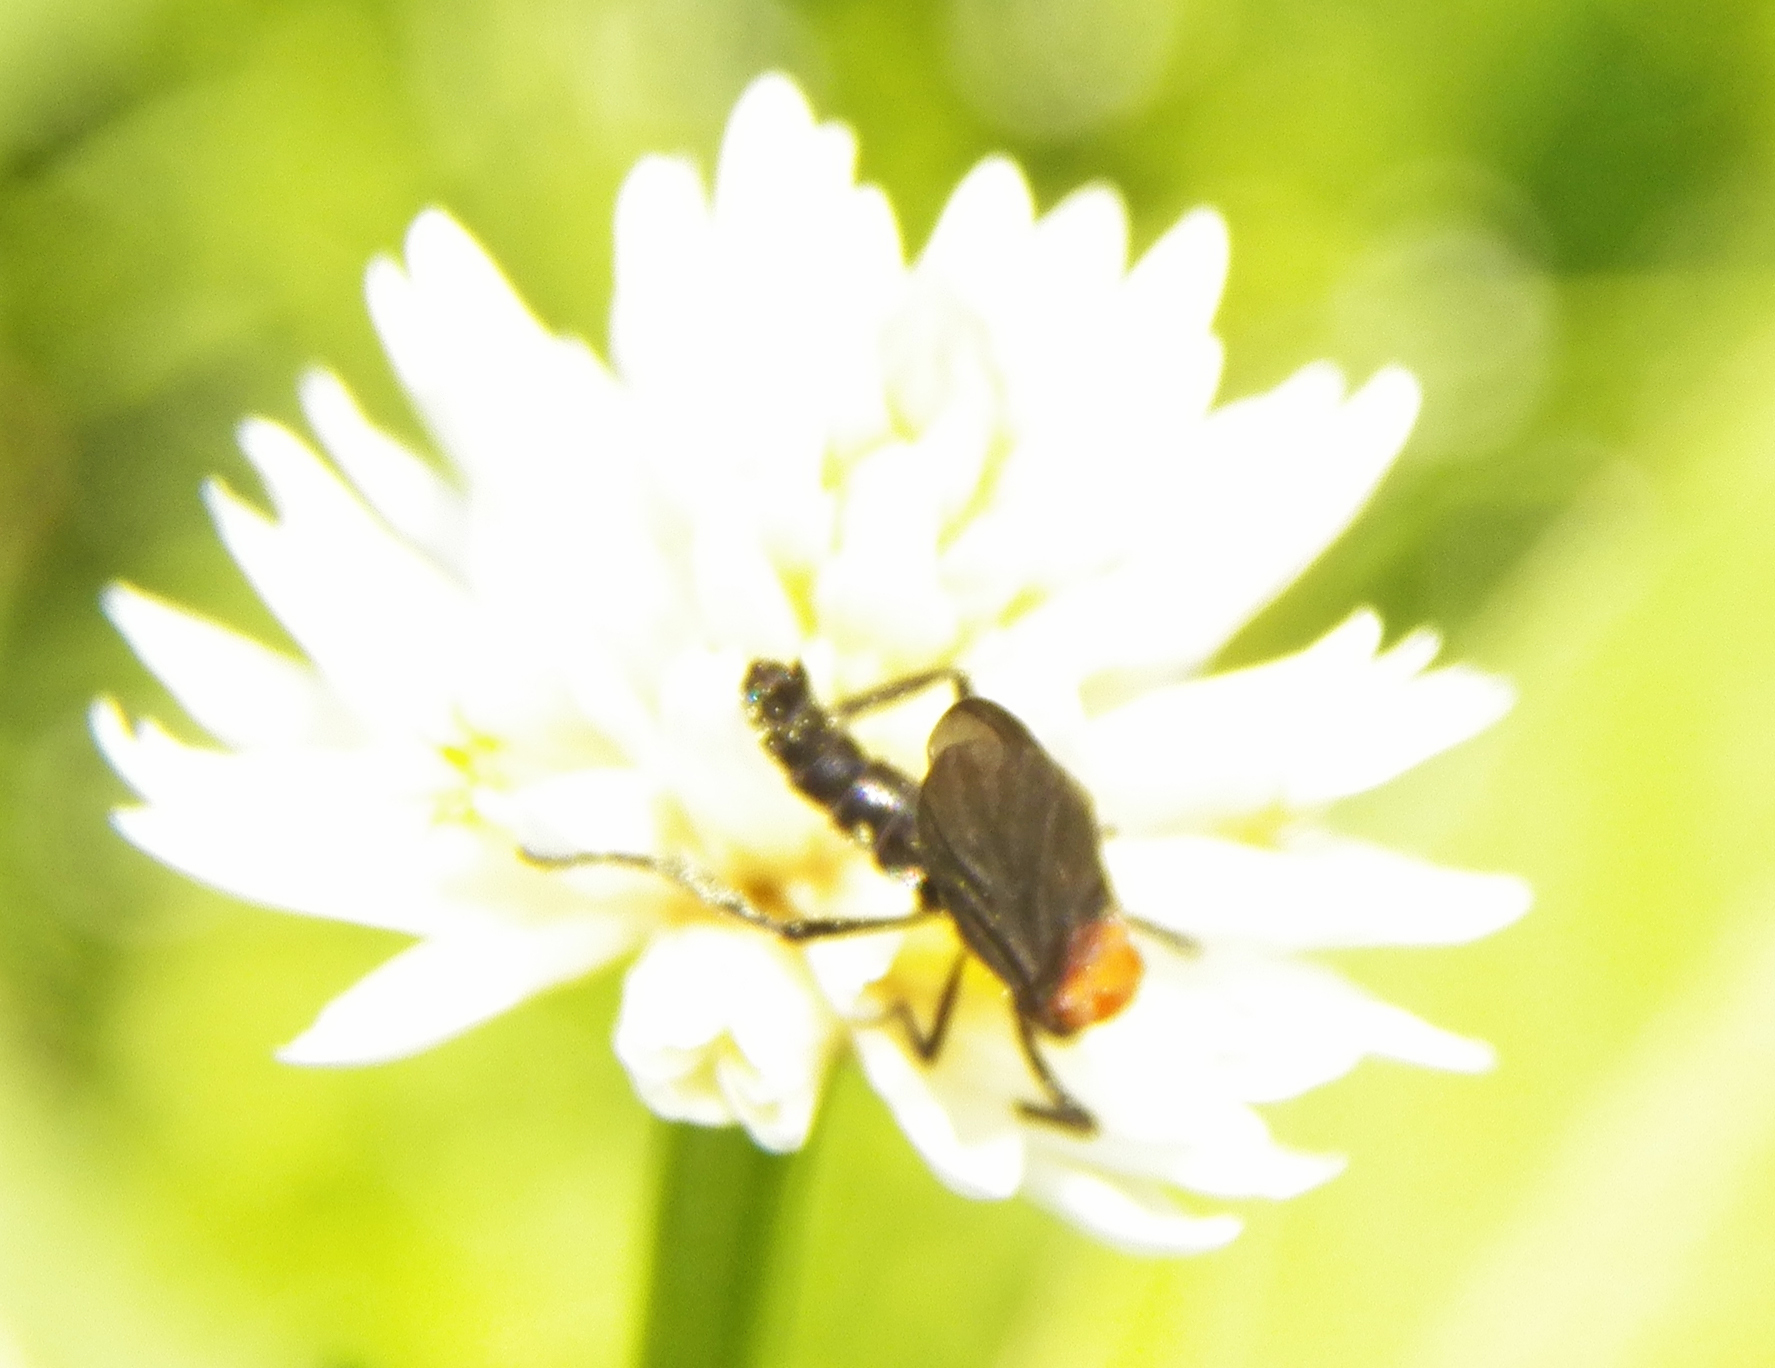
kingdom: Animalia
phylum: Arthropoda
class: Insecta
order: Diptera
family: Bibionidae
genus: Plecia
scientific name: Plecia nearctica
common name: March fly
